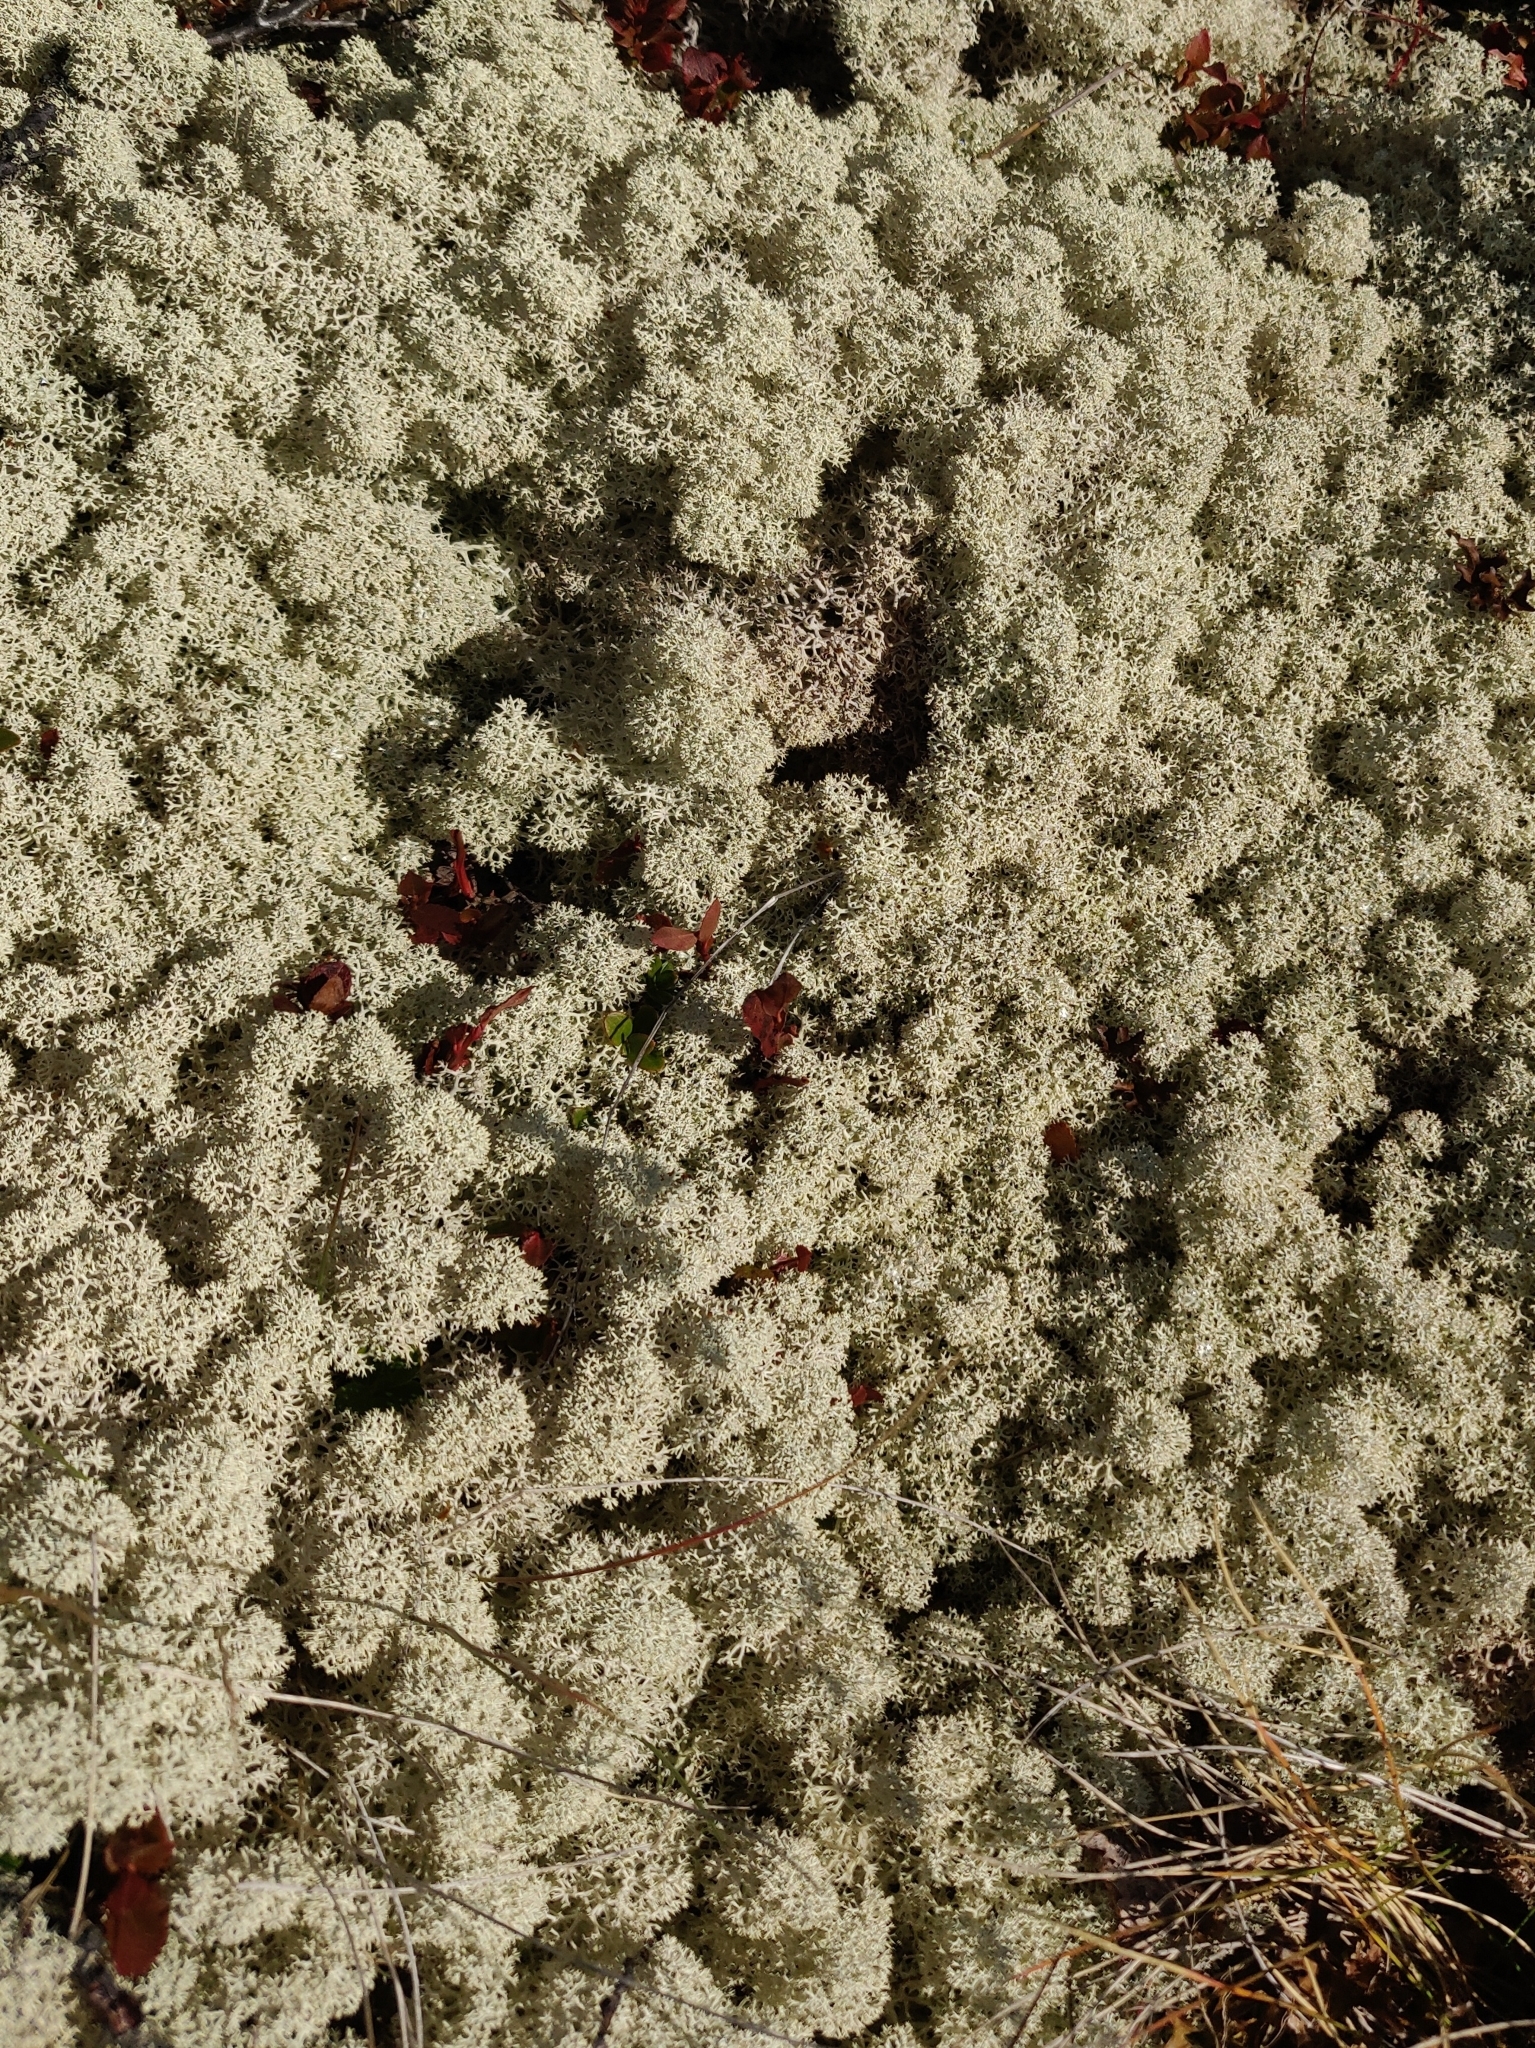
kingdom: Fungi
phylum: Ascomycota
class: Lecanoromycetes
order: Lecanorales
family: Cladoniaceae
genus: Cladonia
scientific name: Cladonia stellaris
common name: Star-tipped reindeer lichen
